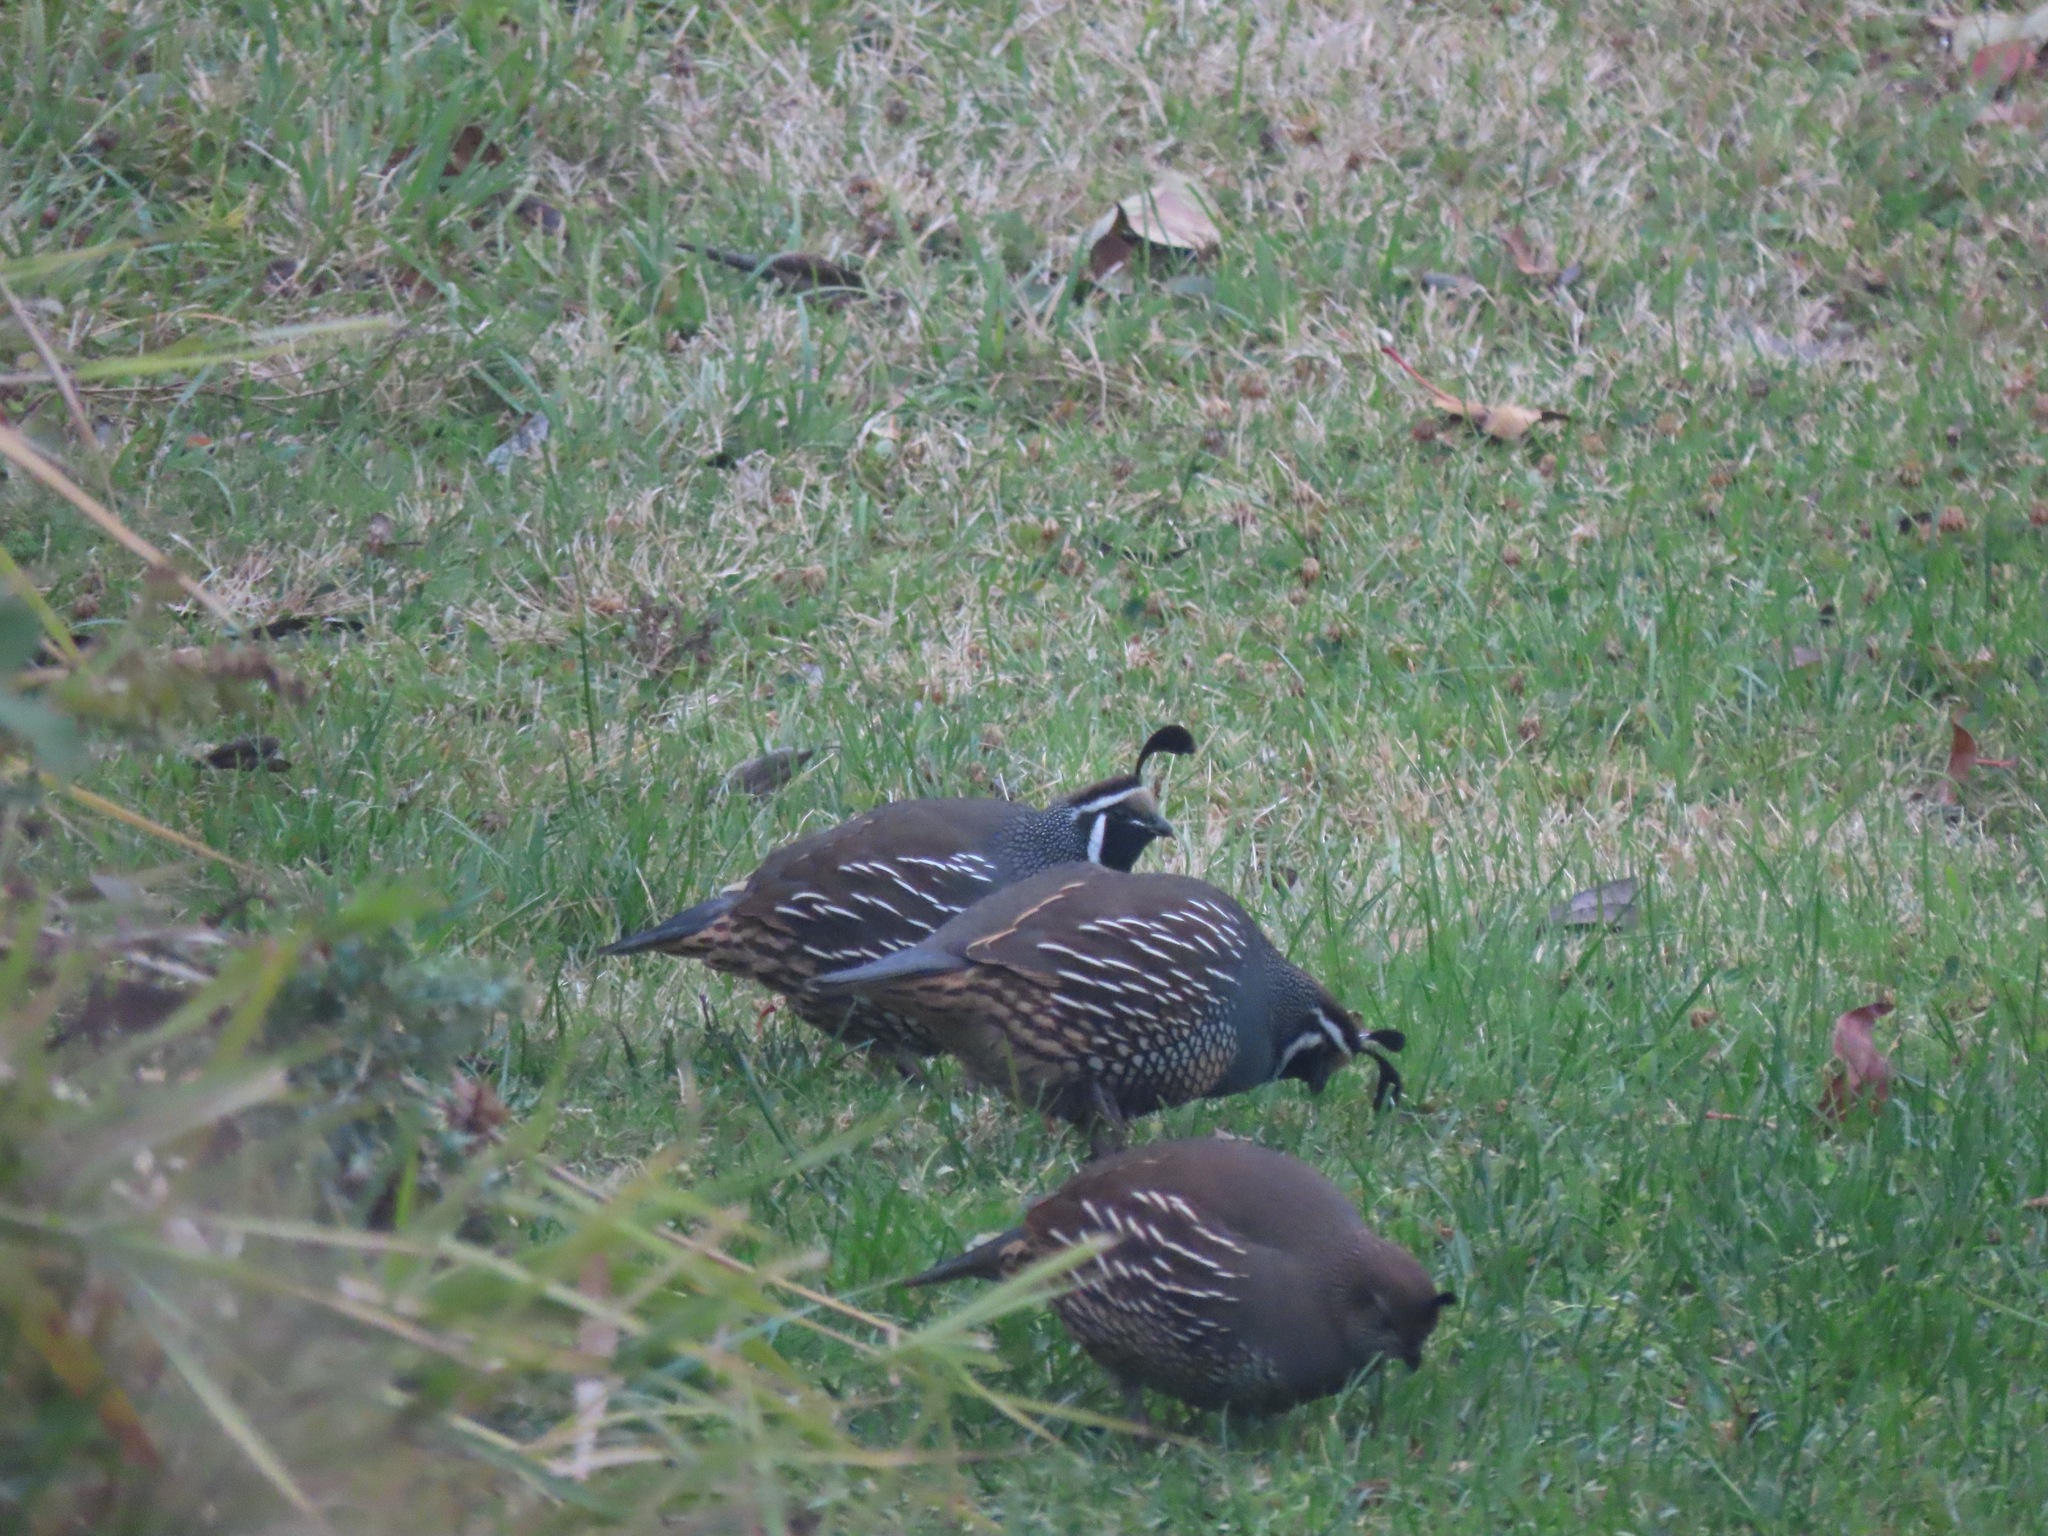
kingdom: Animalia
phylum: Chordata
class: Aves
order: Galliformes
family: Odontophoridae
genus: Callipepla
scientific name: Callipepla californica
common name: California quail
